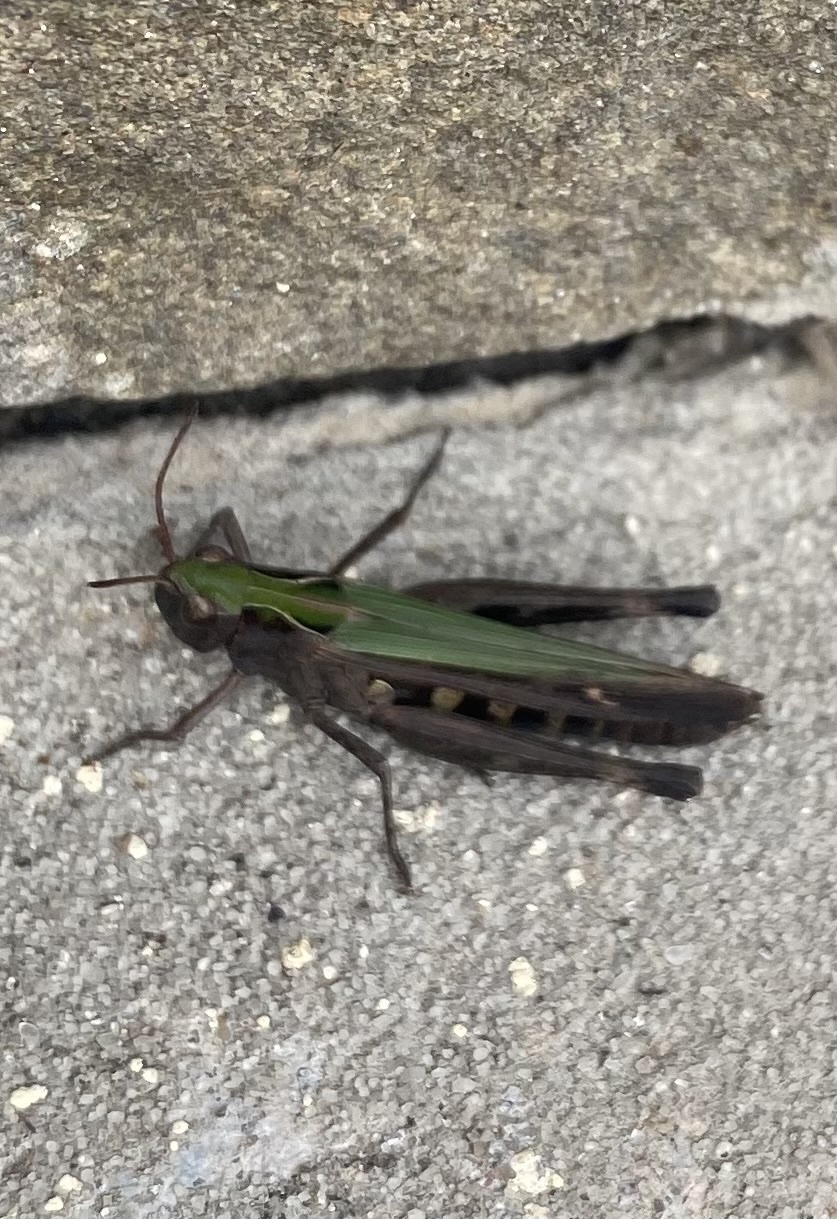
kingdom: Animalia
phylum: Arthropoda
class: Insecta
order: Orthoptera
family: Acrididae
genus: Omocestus
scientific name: Omocestus viridulus
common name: Common green grasshopper
